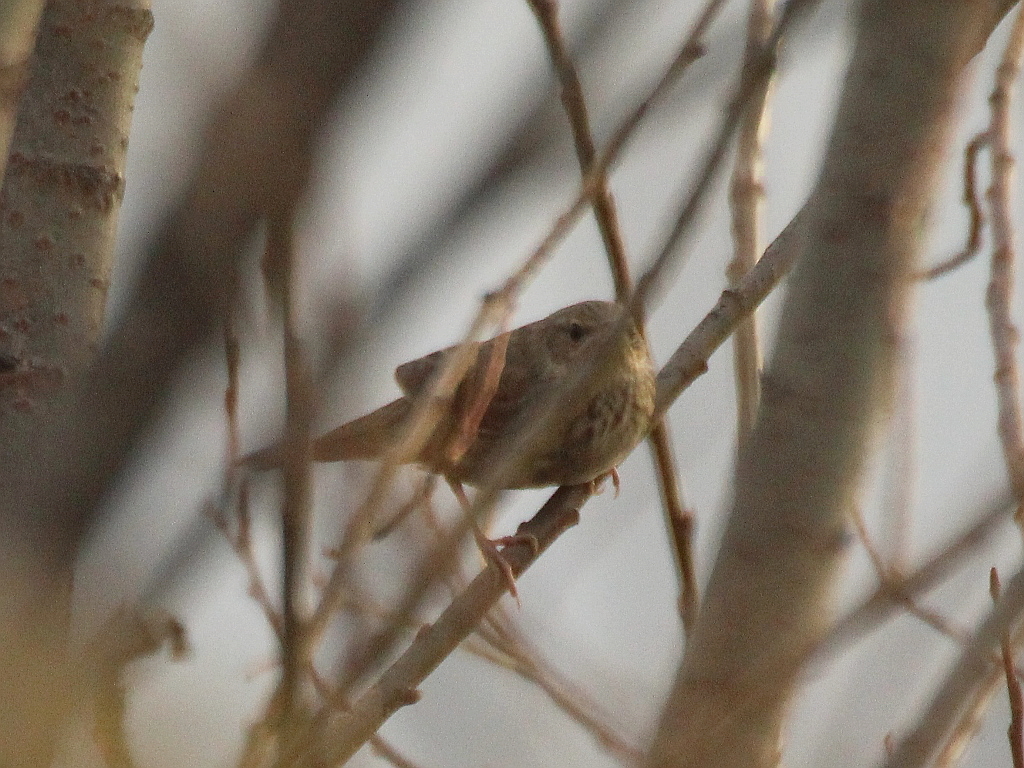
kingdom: Animalia
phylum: Chordata
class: Aves
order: Passeriformes
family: Locustellidae
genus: Locustella
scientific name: Locustella naevia
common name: Common grasshopper warbler
